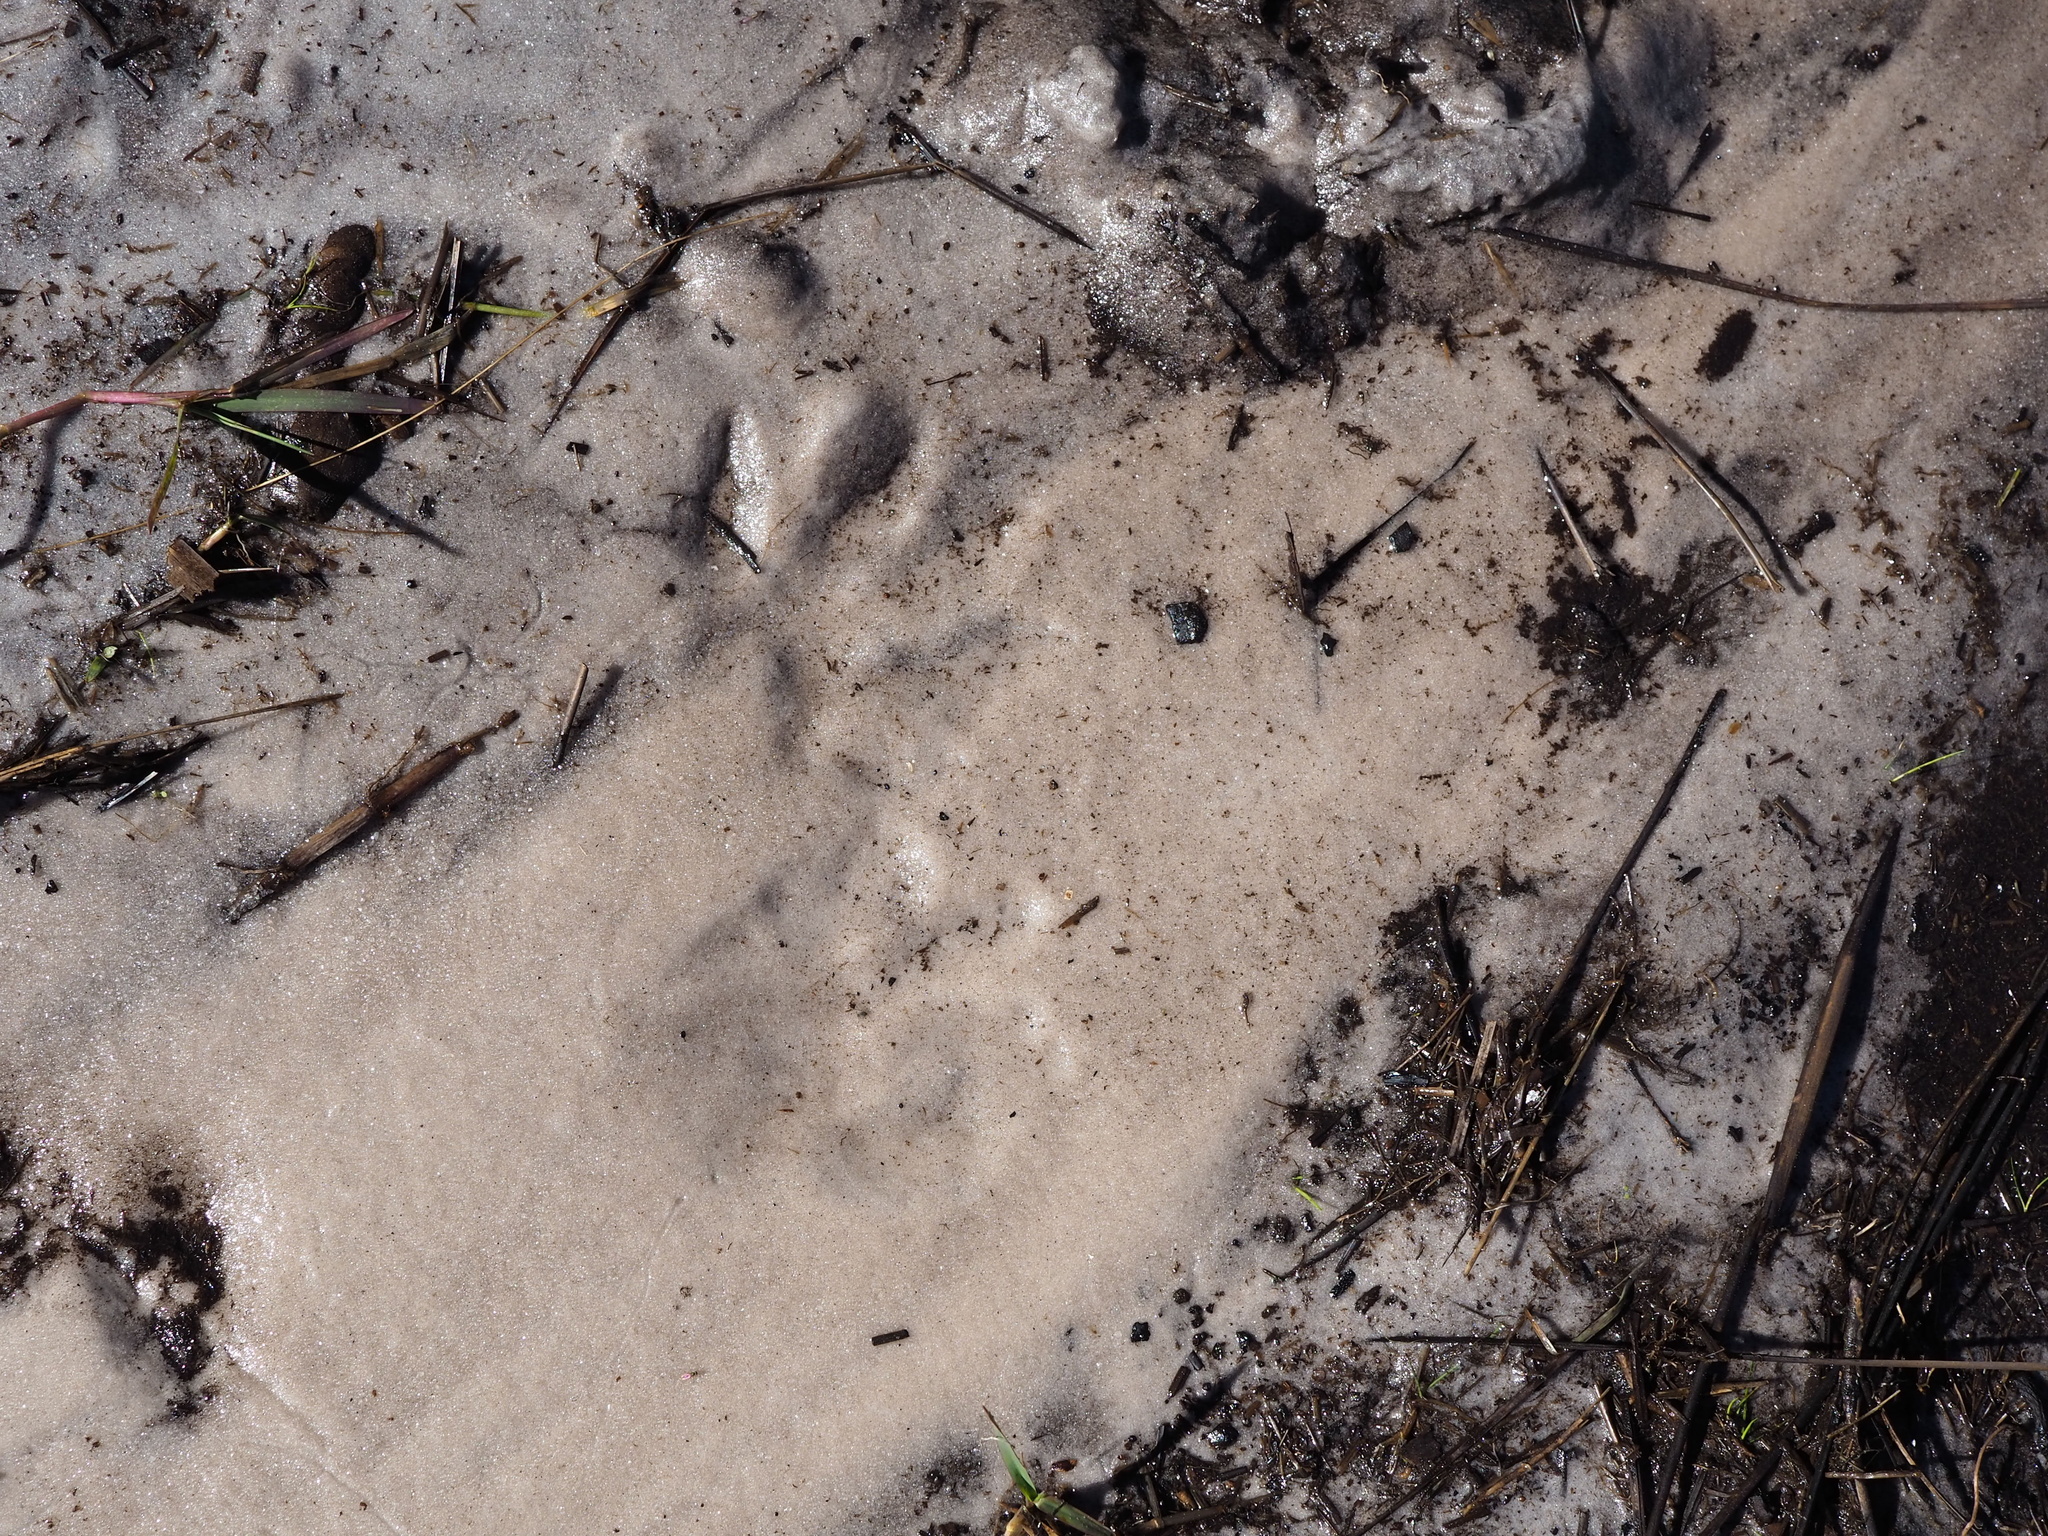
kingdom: Animalia
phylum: Chordata
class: Mammalia
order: Carnivora
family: Procyonidae
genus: Procyon
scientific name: Procyon lotor
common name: Raccoon
